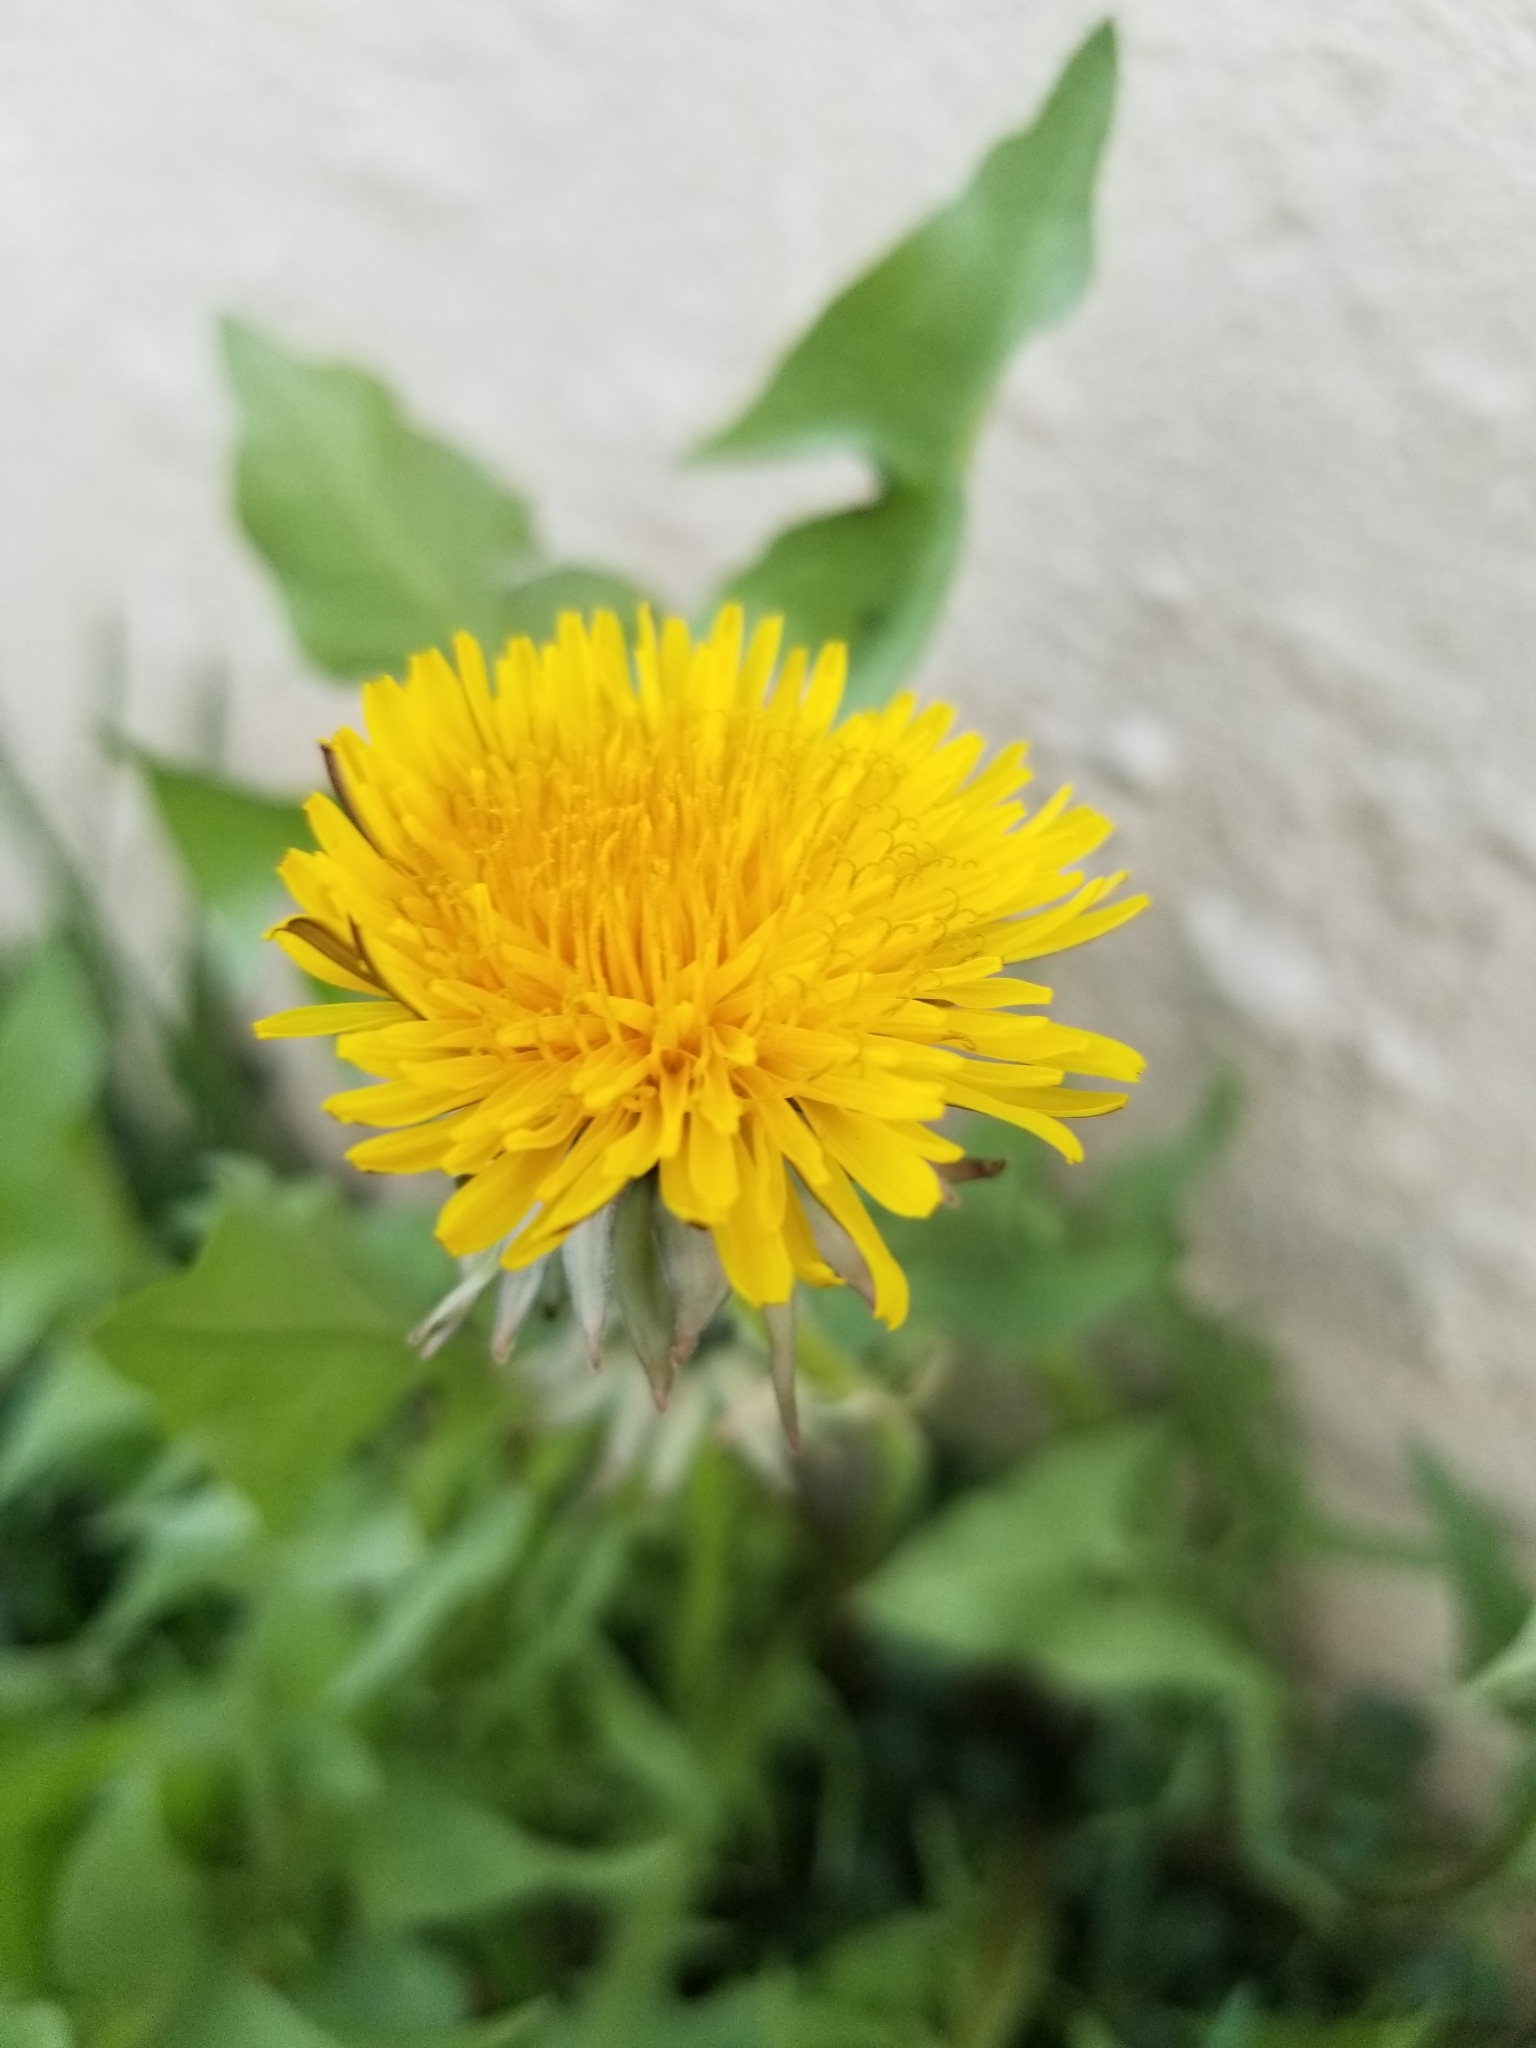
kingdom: Plantae
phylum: Tracheophyta
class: Magnoliopsida
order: Asterales
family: Asteraceae
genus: Taraxacum
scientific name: Taraxacum officinale
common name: Common dandelion
